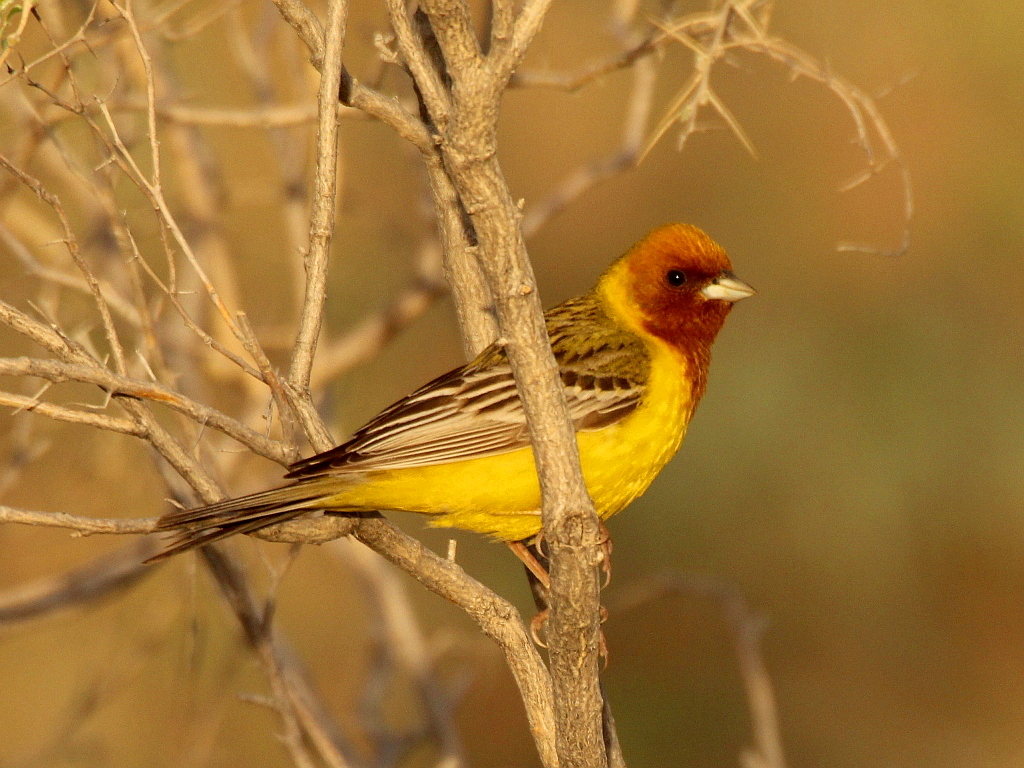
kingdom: Animalia
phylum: Chordata
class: Aves
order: Passeriformes
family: Emberizidae
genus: Emberiza
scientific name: Emberiza bruniceps
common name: Red-headed bunting
